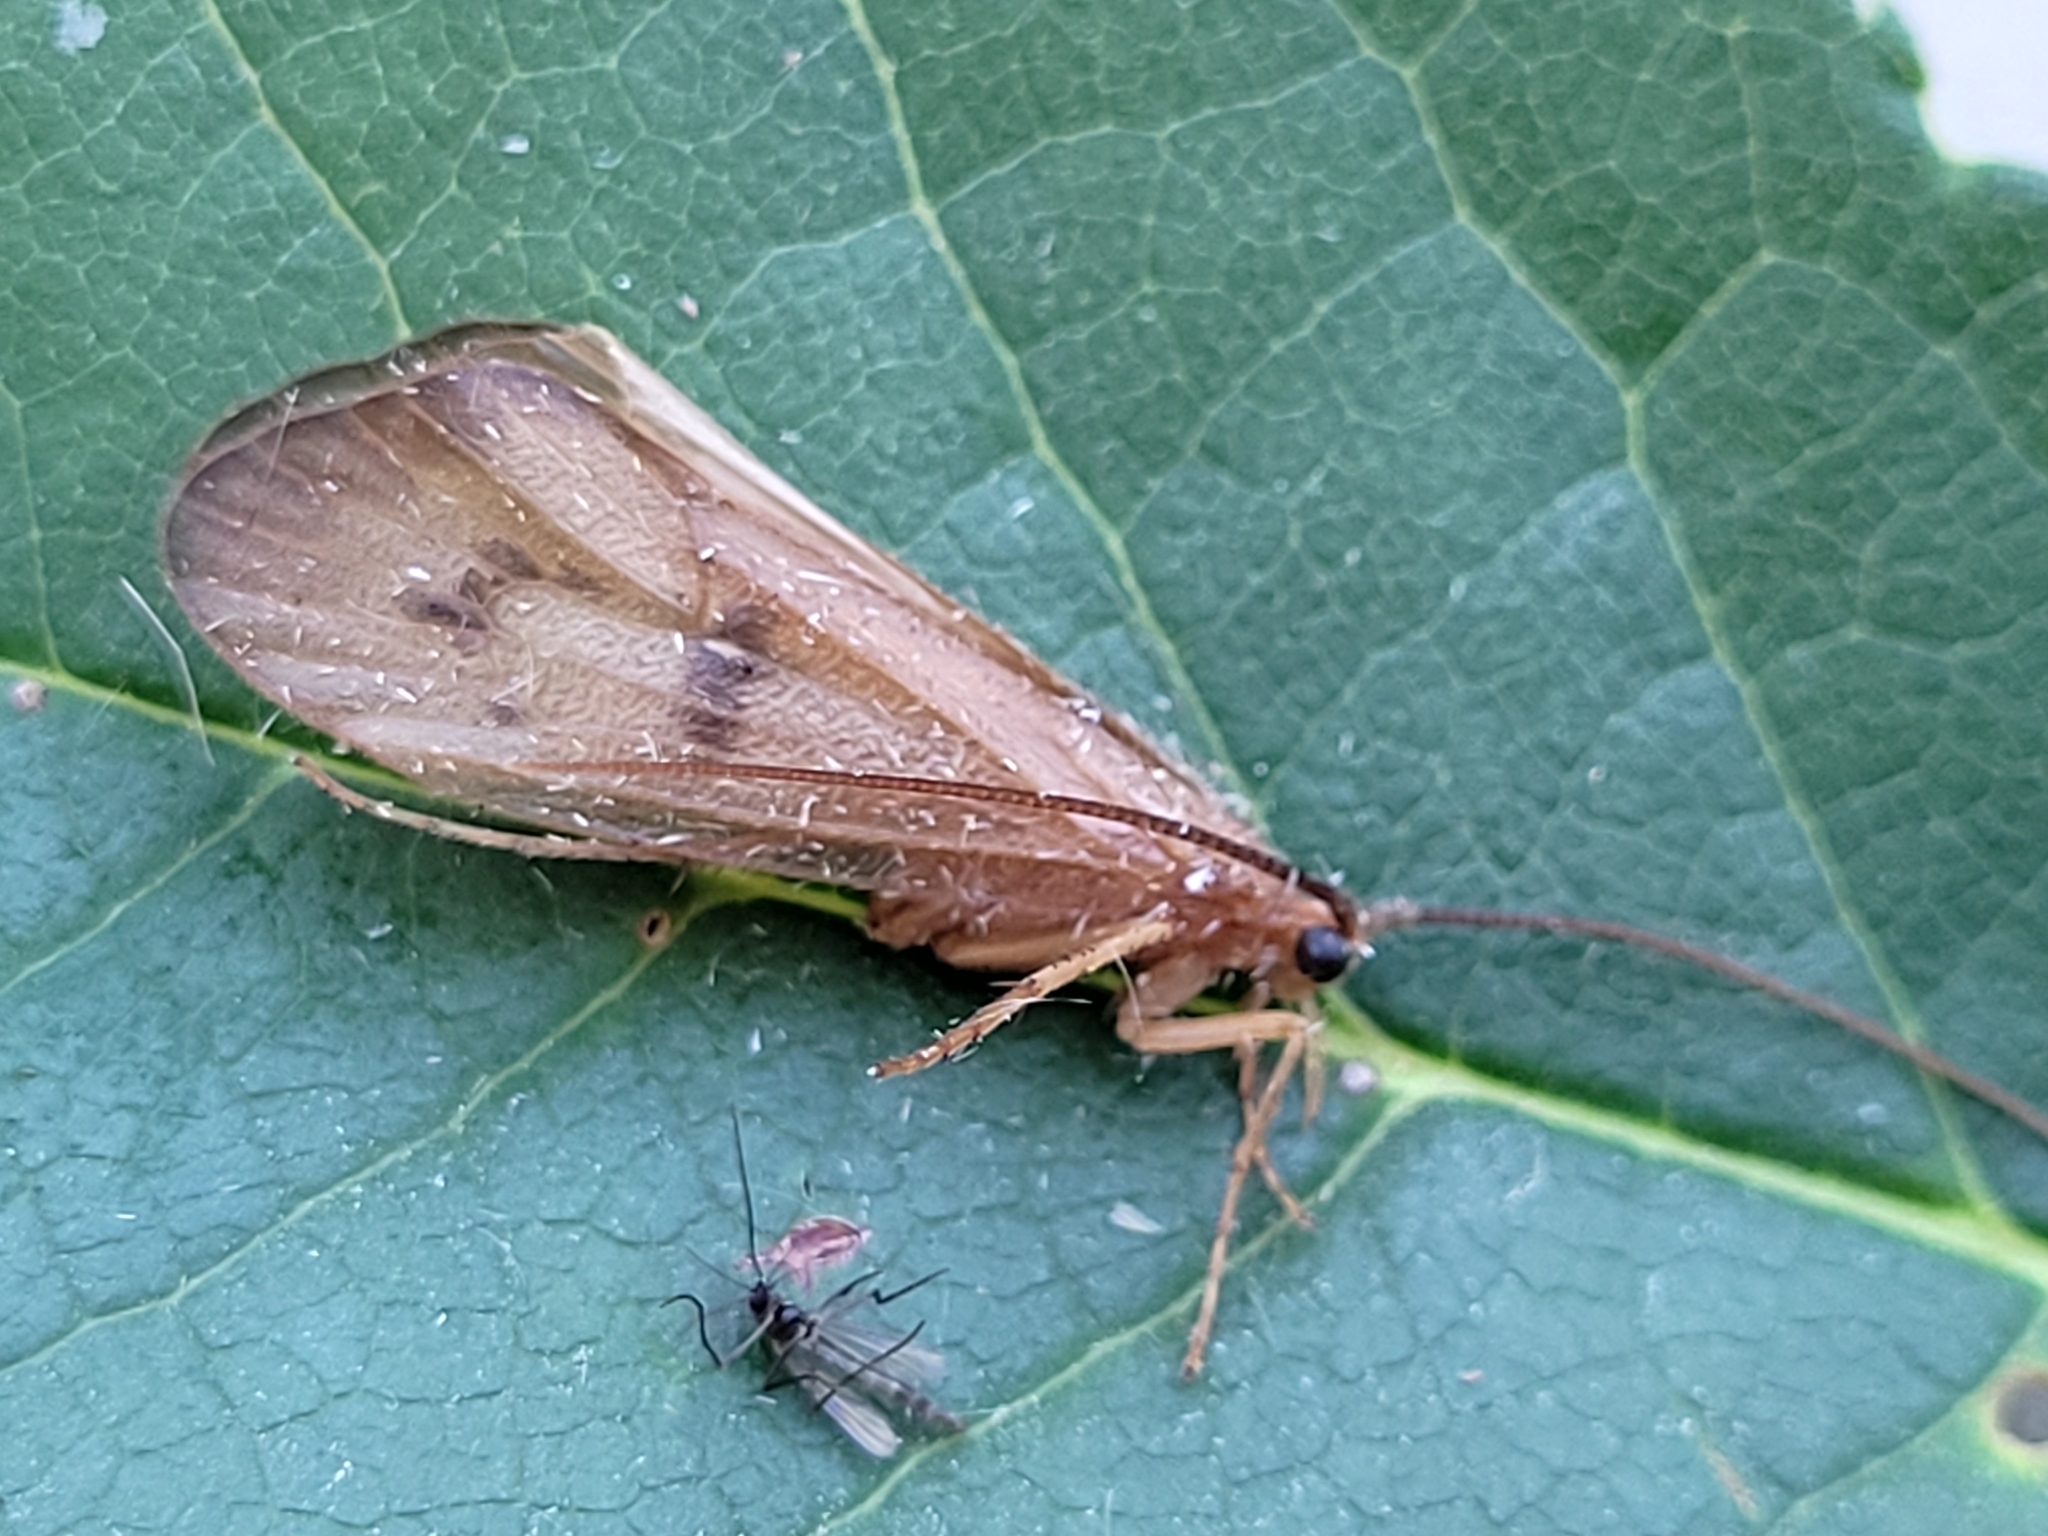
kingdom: Animalia
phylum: Arthropoda
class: Insecta
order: Trichoptera
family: Limnephilidae
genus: Onocosmoecus
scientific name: Onocosmoecus unicolor
